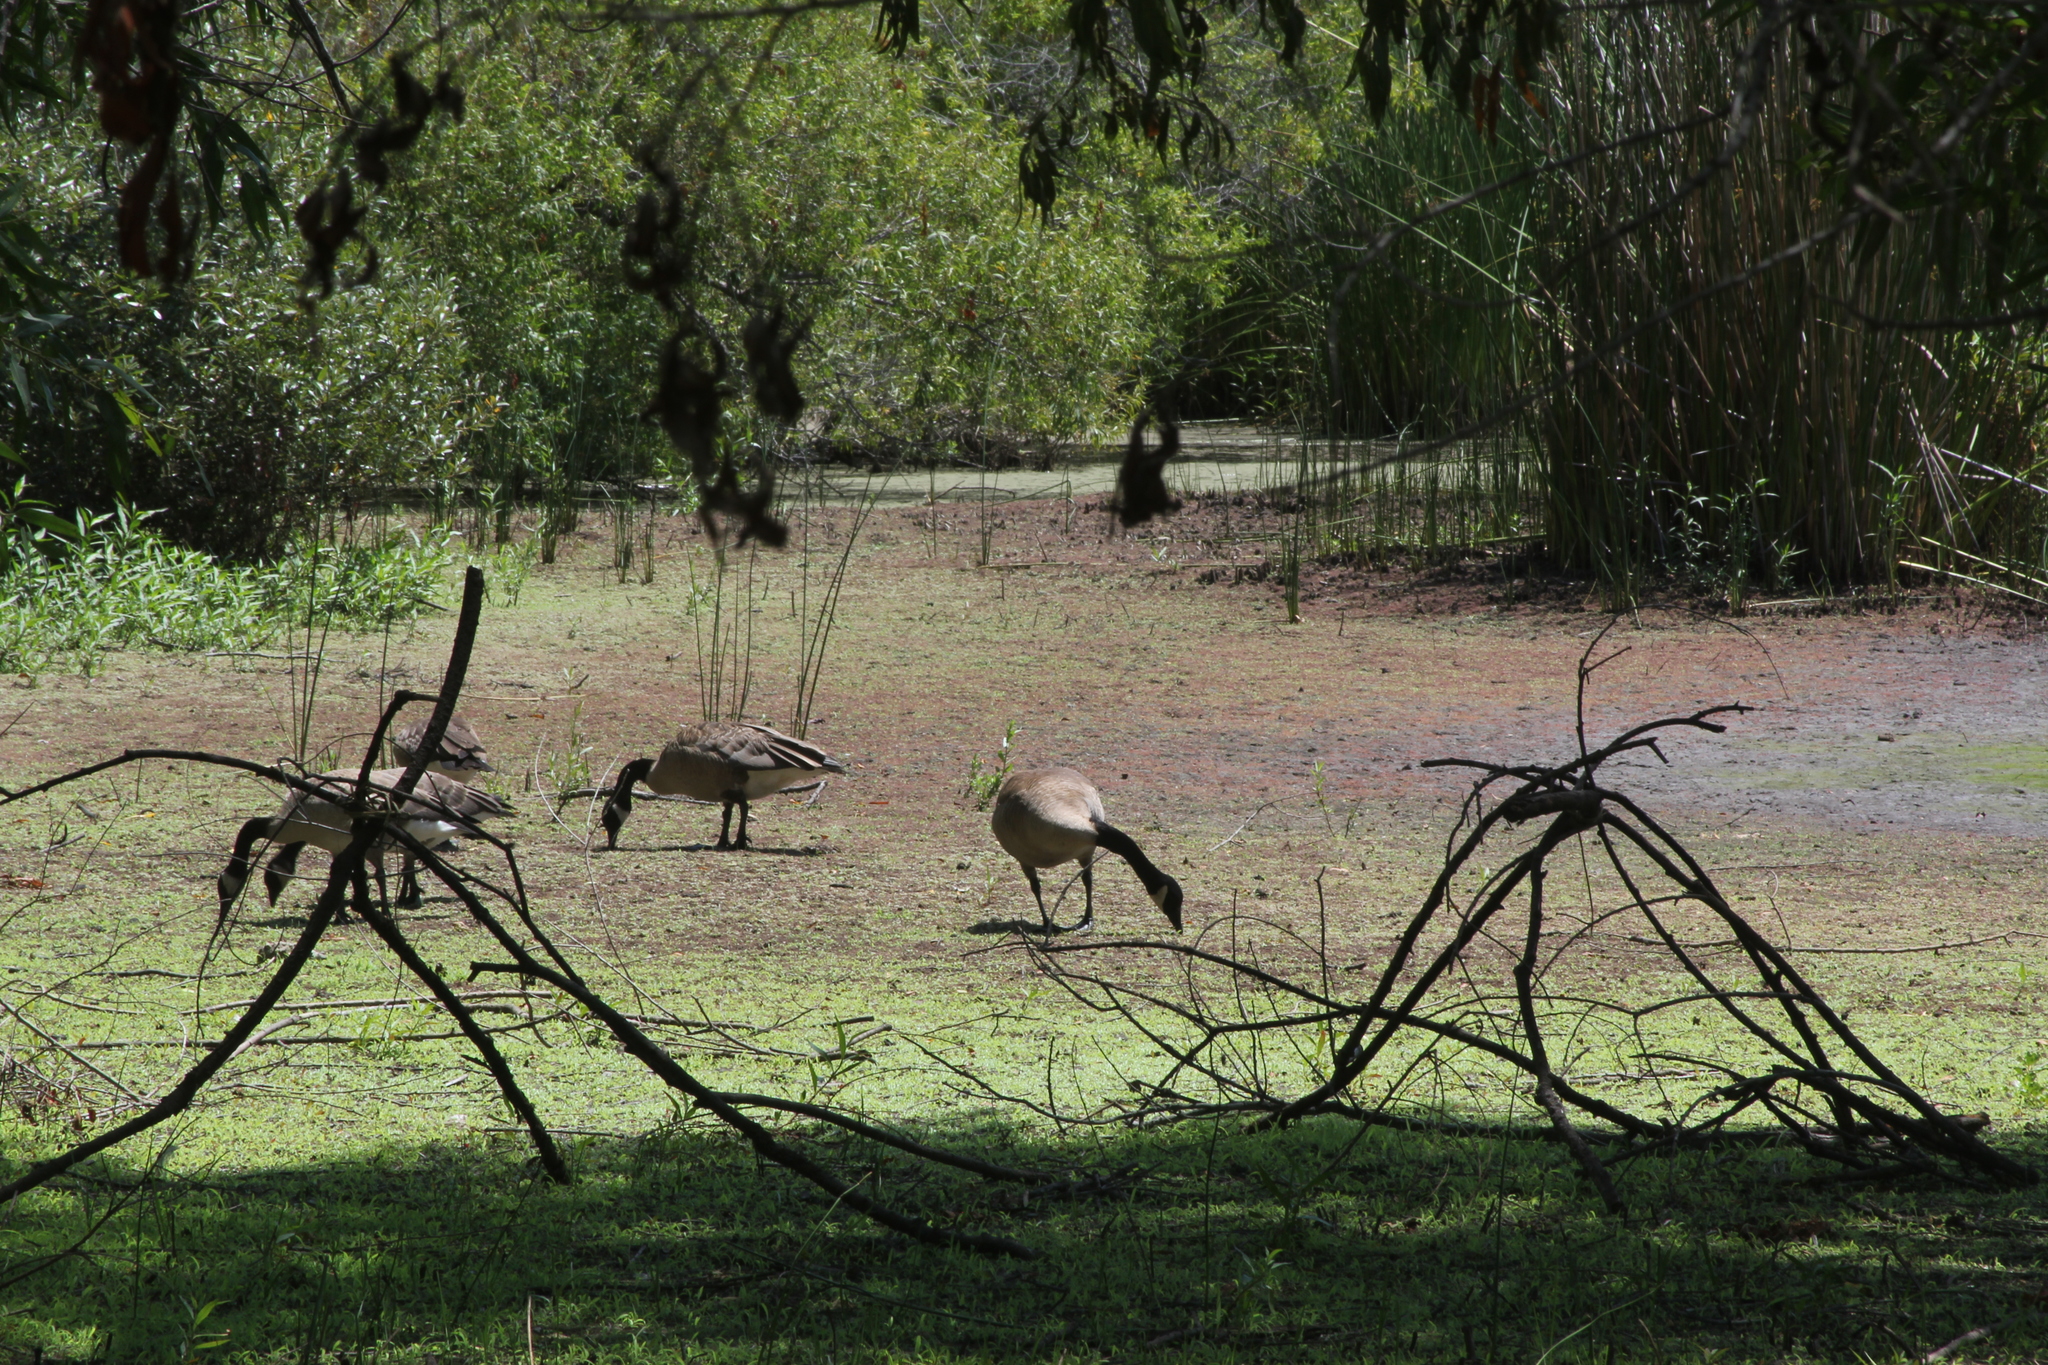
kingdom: Animalia
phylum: Chordata
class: Aves
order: Anseriformes
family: Anatidae
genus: Branta
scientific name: Branta canadensis
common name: Canada goose
